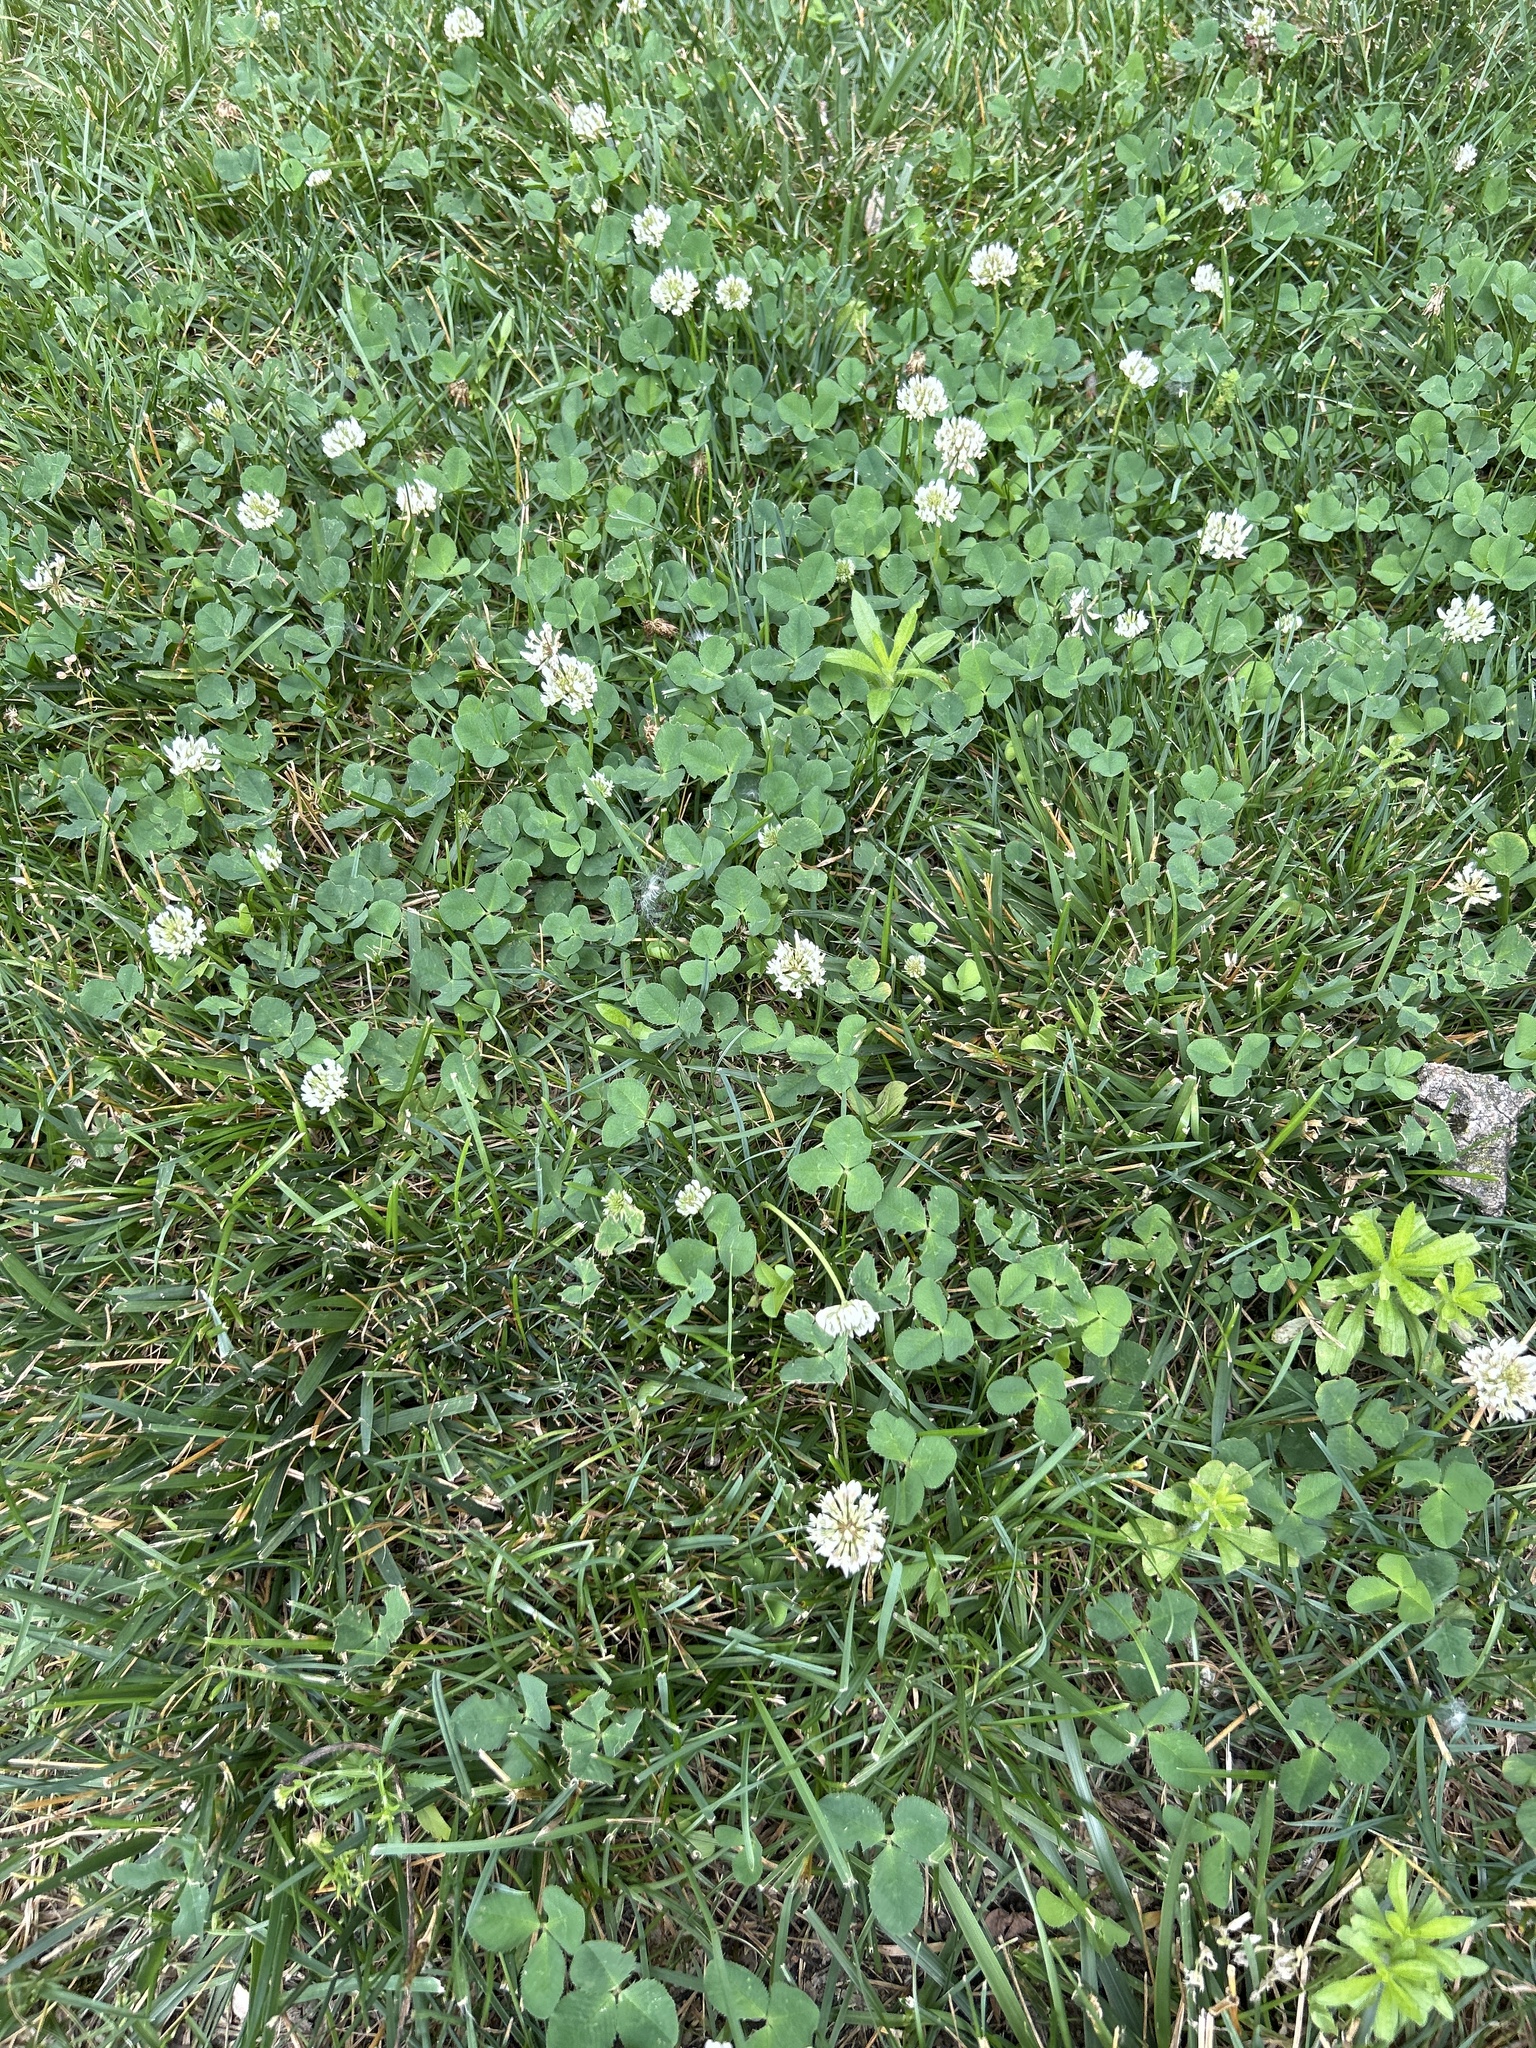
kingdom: Plantae
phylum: Tracheophyta
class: Magnoliopsida
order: Fabales
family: Fabaceae
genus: Trifolium
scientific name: Trifolium repens
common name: White clover
